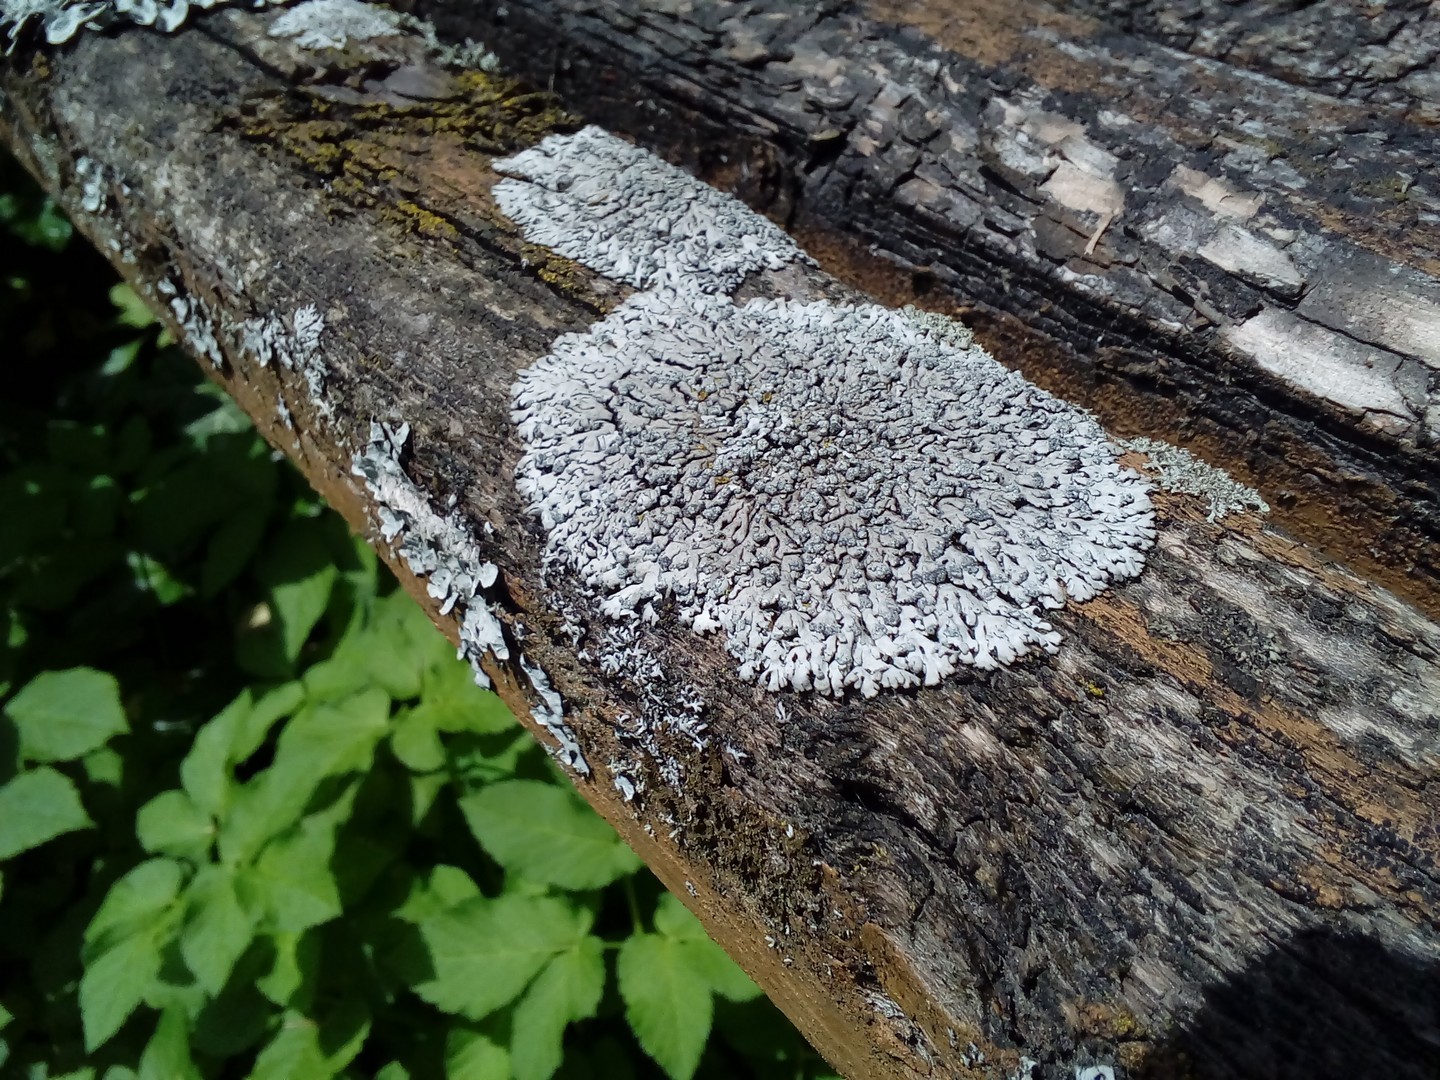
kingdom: Fungi
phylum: Ascomycota
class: Lecanoromycetes
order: Caliciales
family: Physciaceae
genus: Physcia
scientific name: Physcia caesia
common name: Blue-gray rosette lichen
